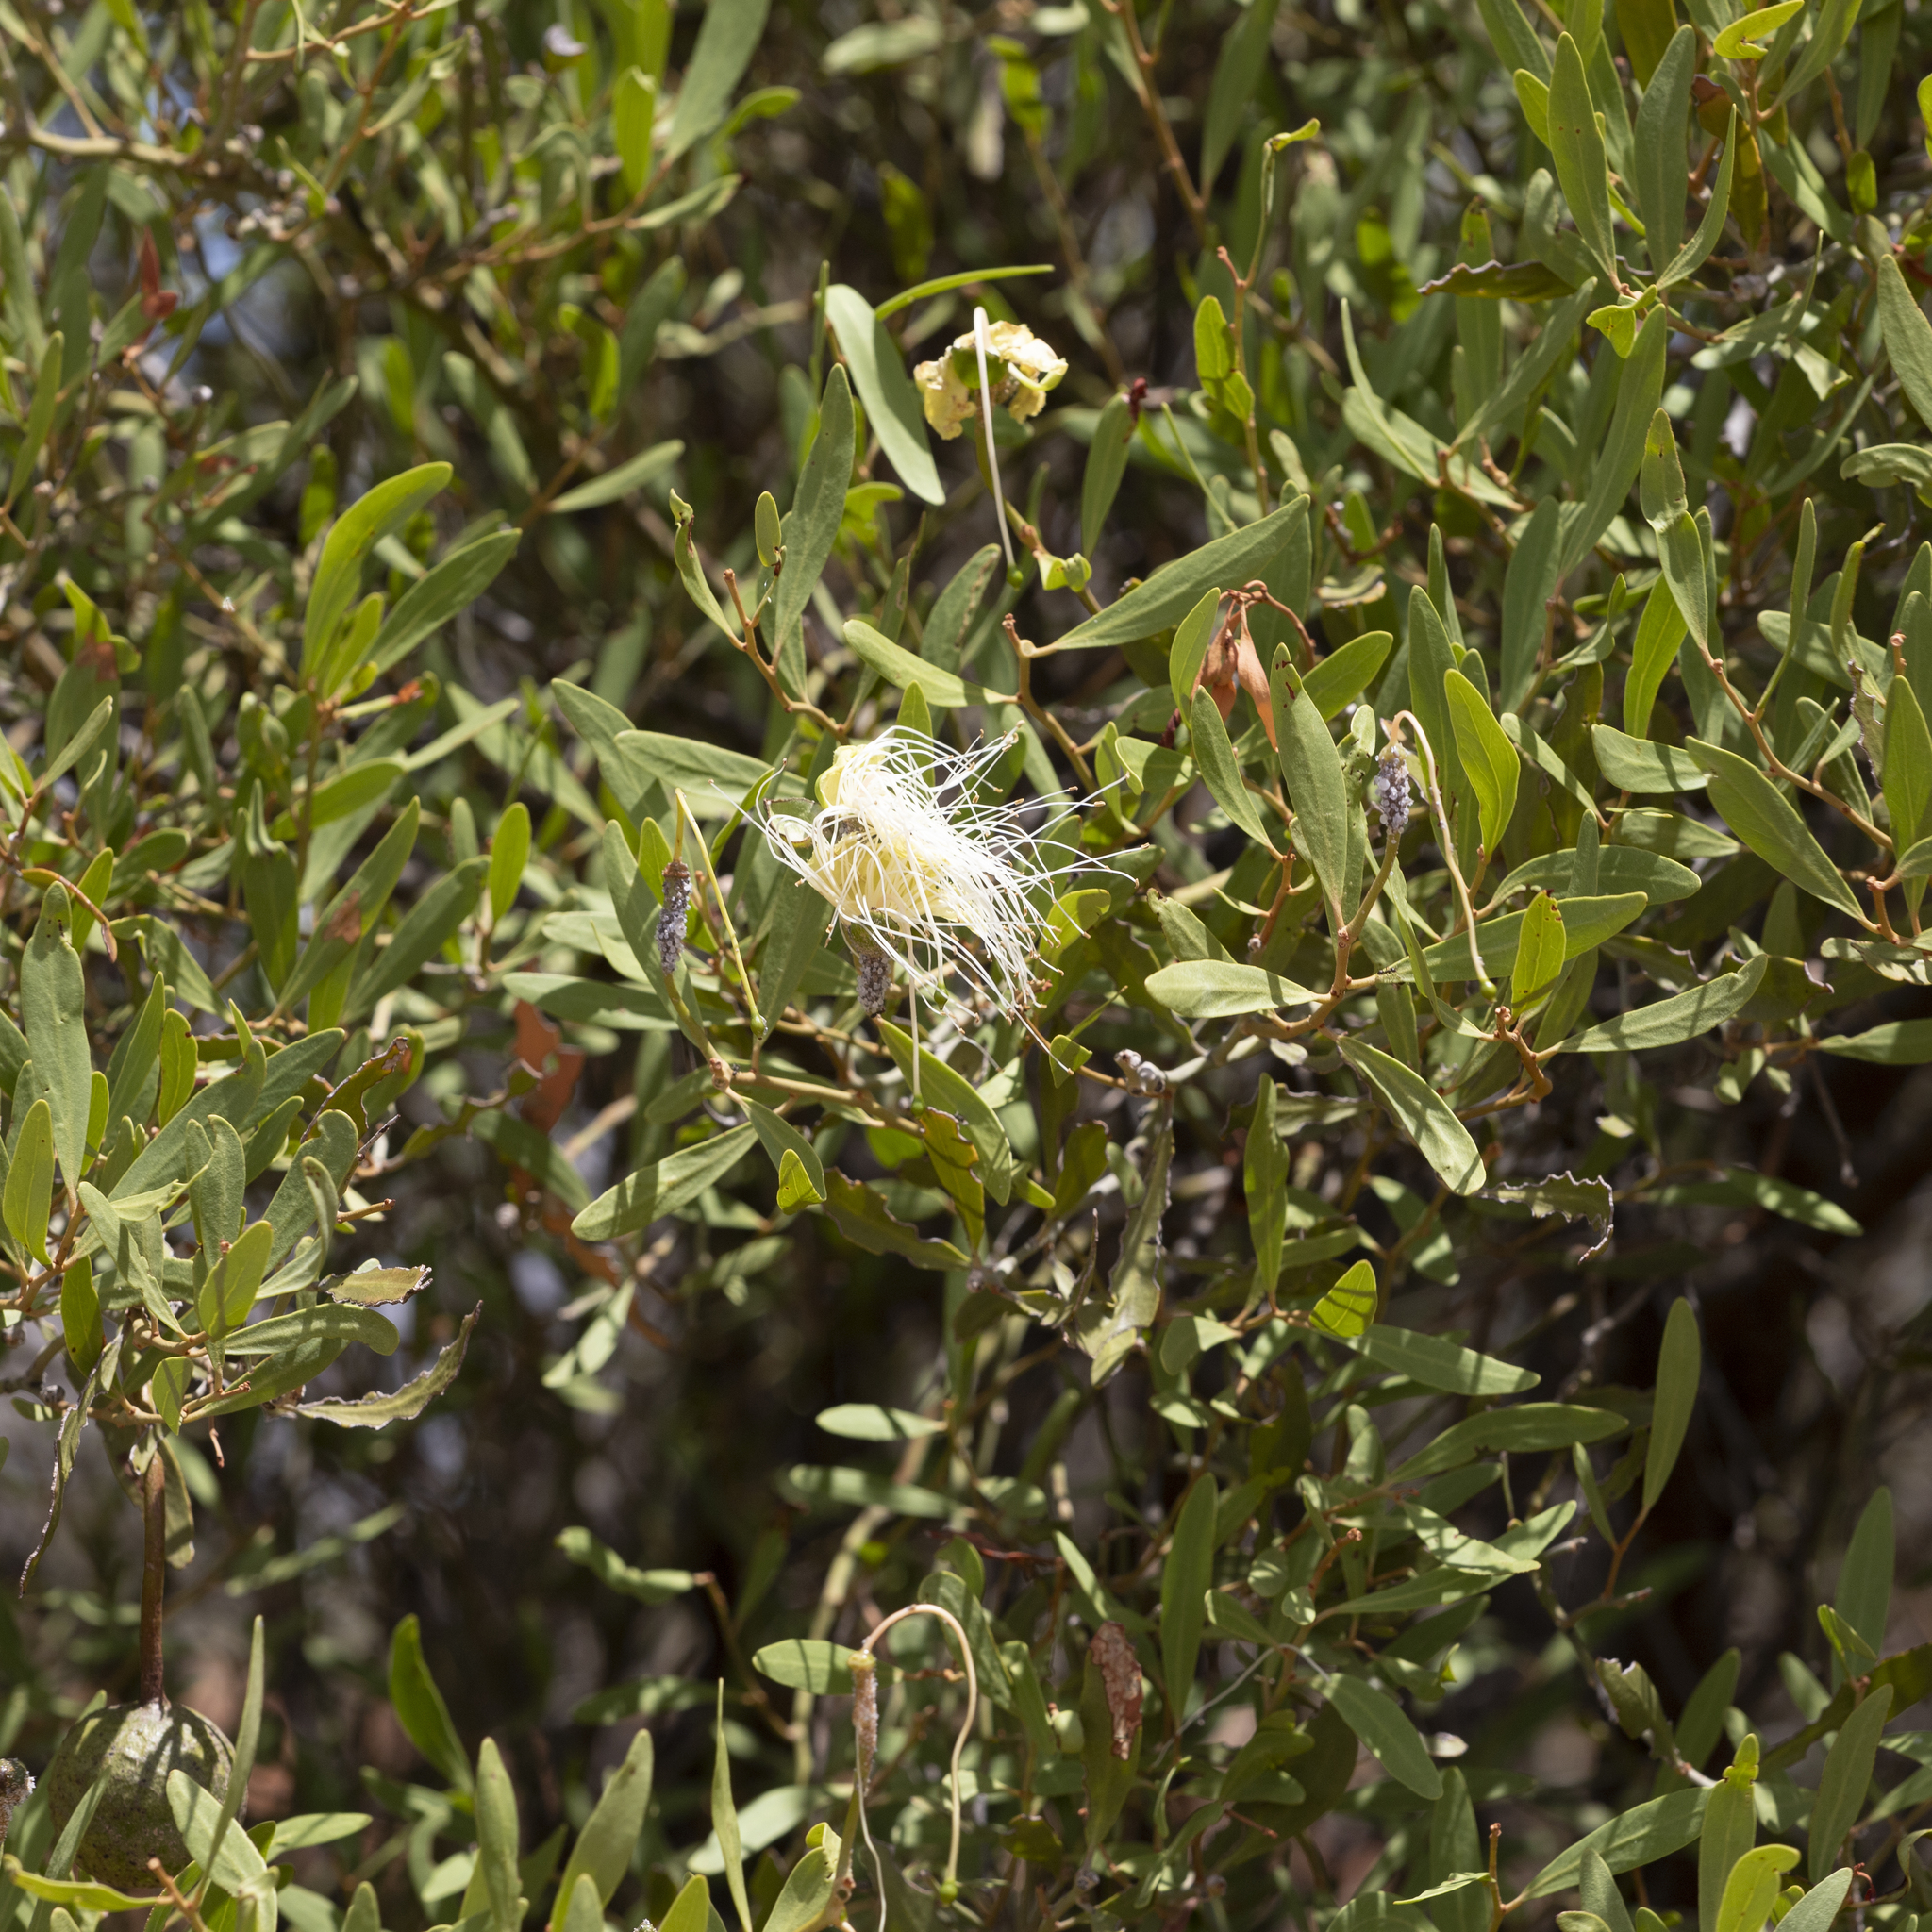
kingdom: Plantae
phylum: Tracheophyta
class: Magnoliopsida
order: Brassicales
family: Capparaceae
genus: Capparis
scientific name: Capparis loranthifolia
